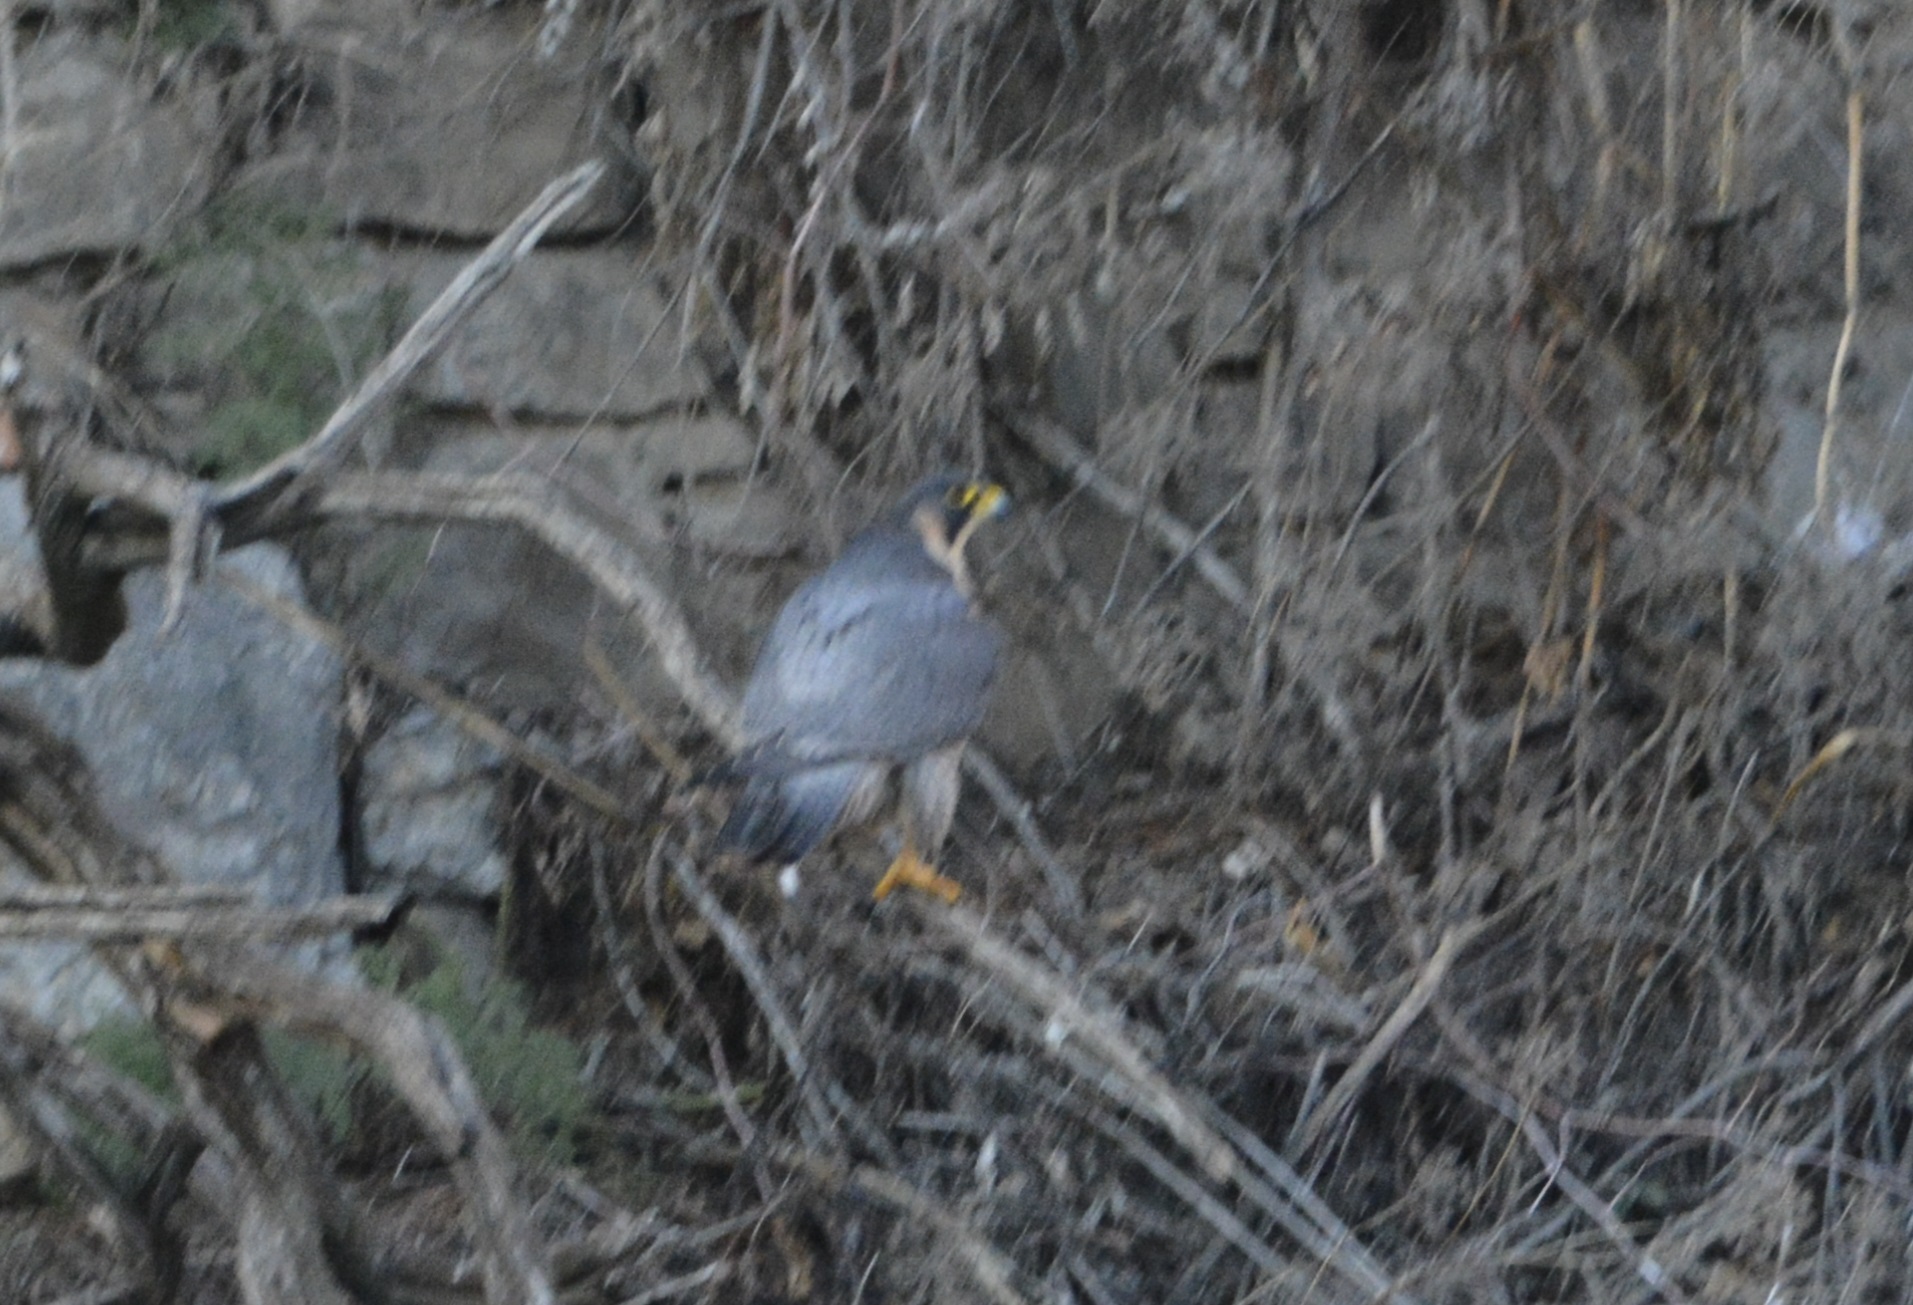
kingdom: Animalia
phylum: Chordata
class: Aves
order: Falconiformes
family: Falconidae
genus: Falco
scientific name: Falco peregrinus
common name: Peregrine falcon
